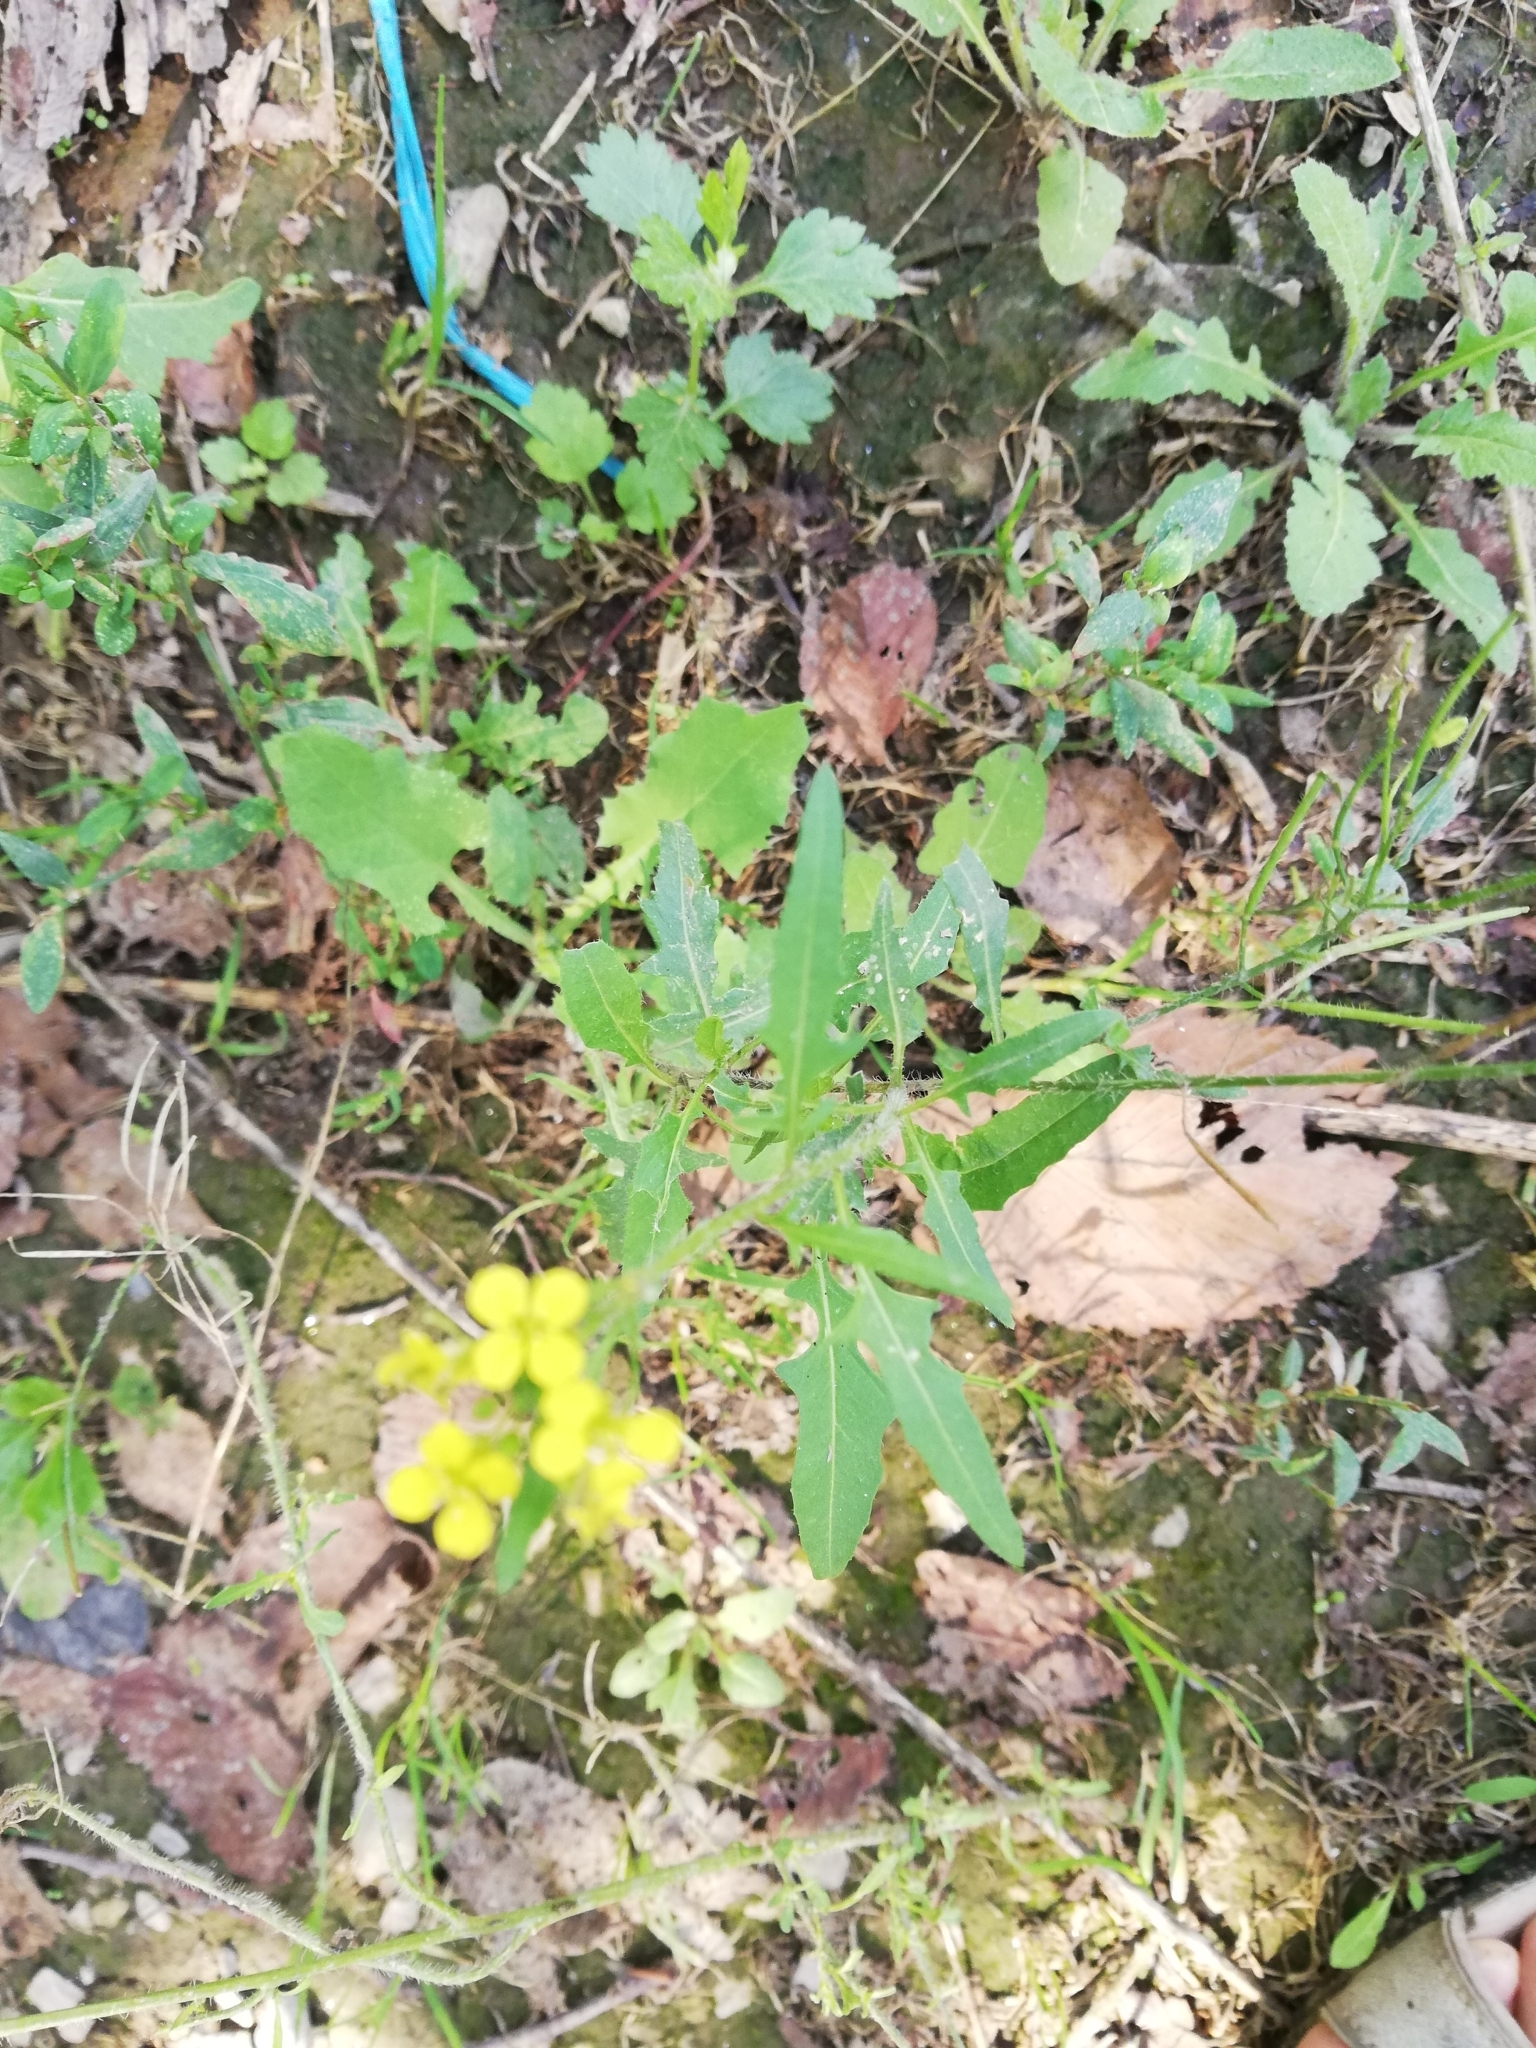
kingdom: Plantae
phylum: Tracheophyta
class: Magnoliopsida
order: Brassicales
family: Brassicaceae
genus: Erysimum
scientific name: Erysimum cheiranthoides
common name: Treacle mustard
